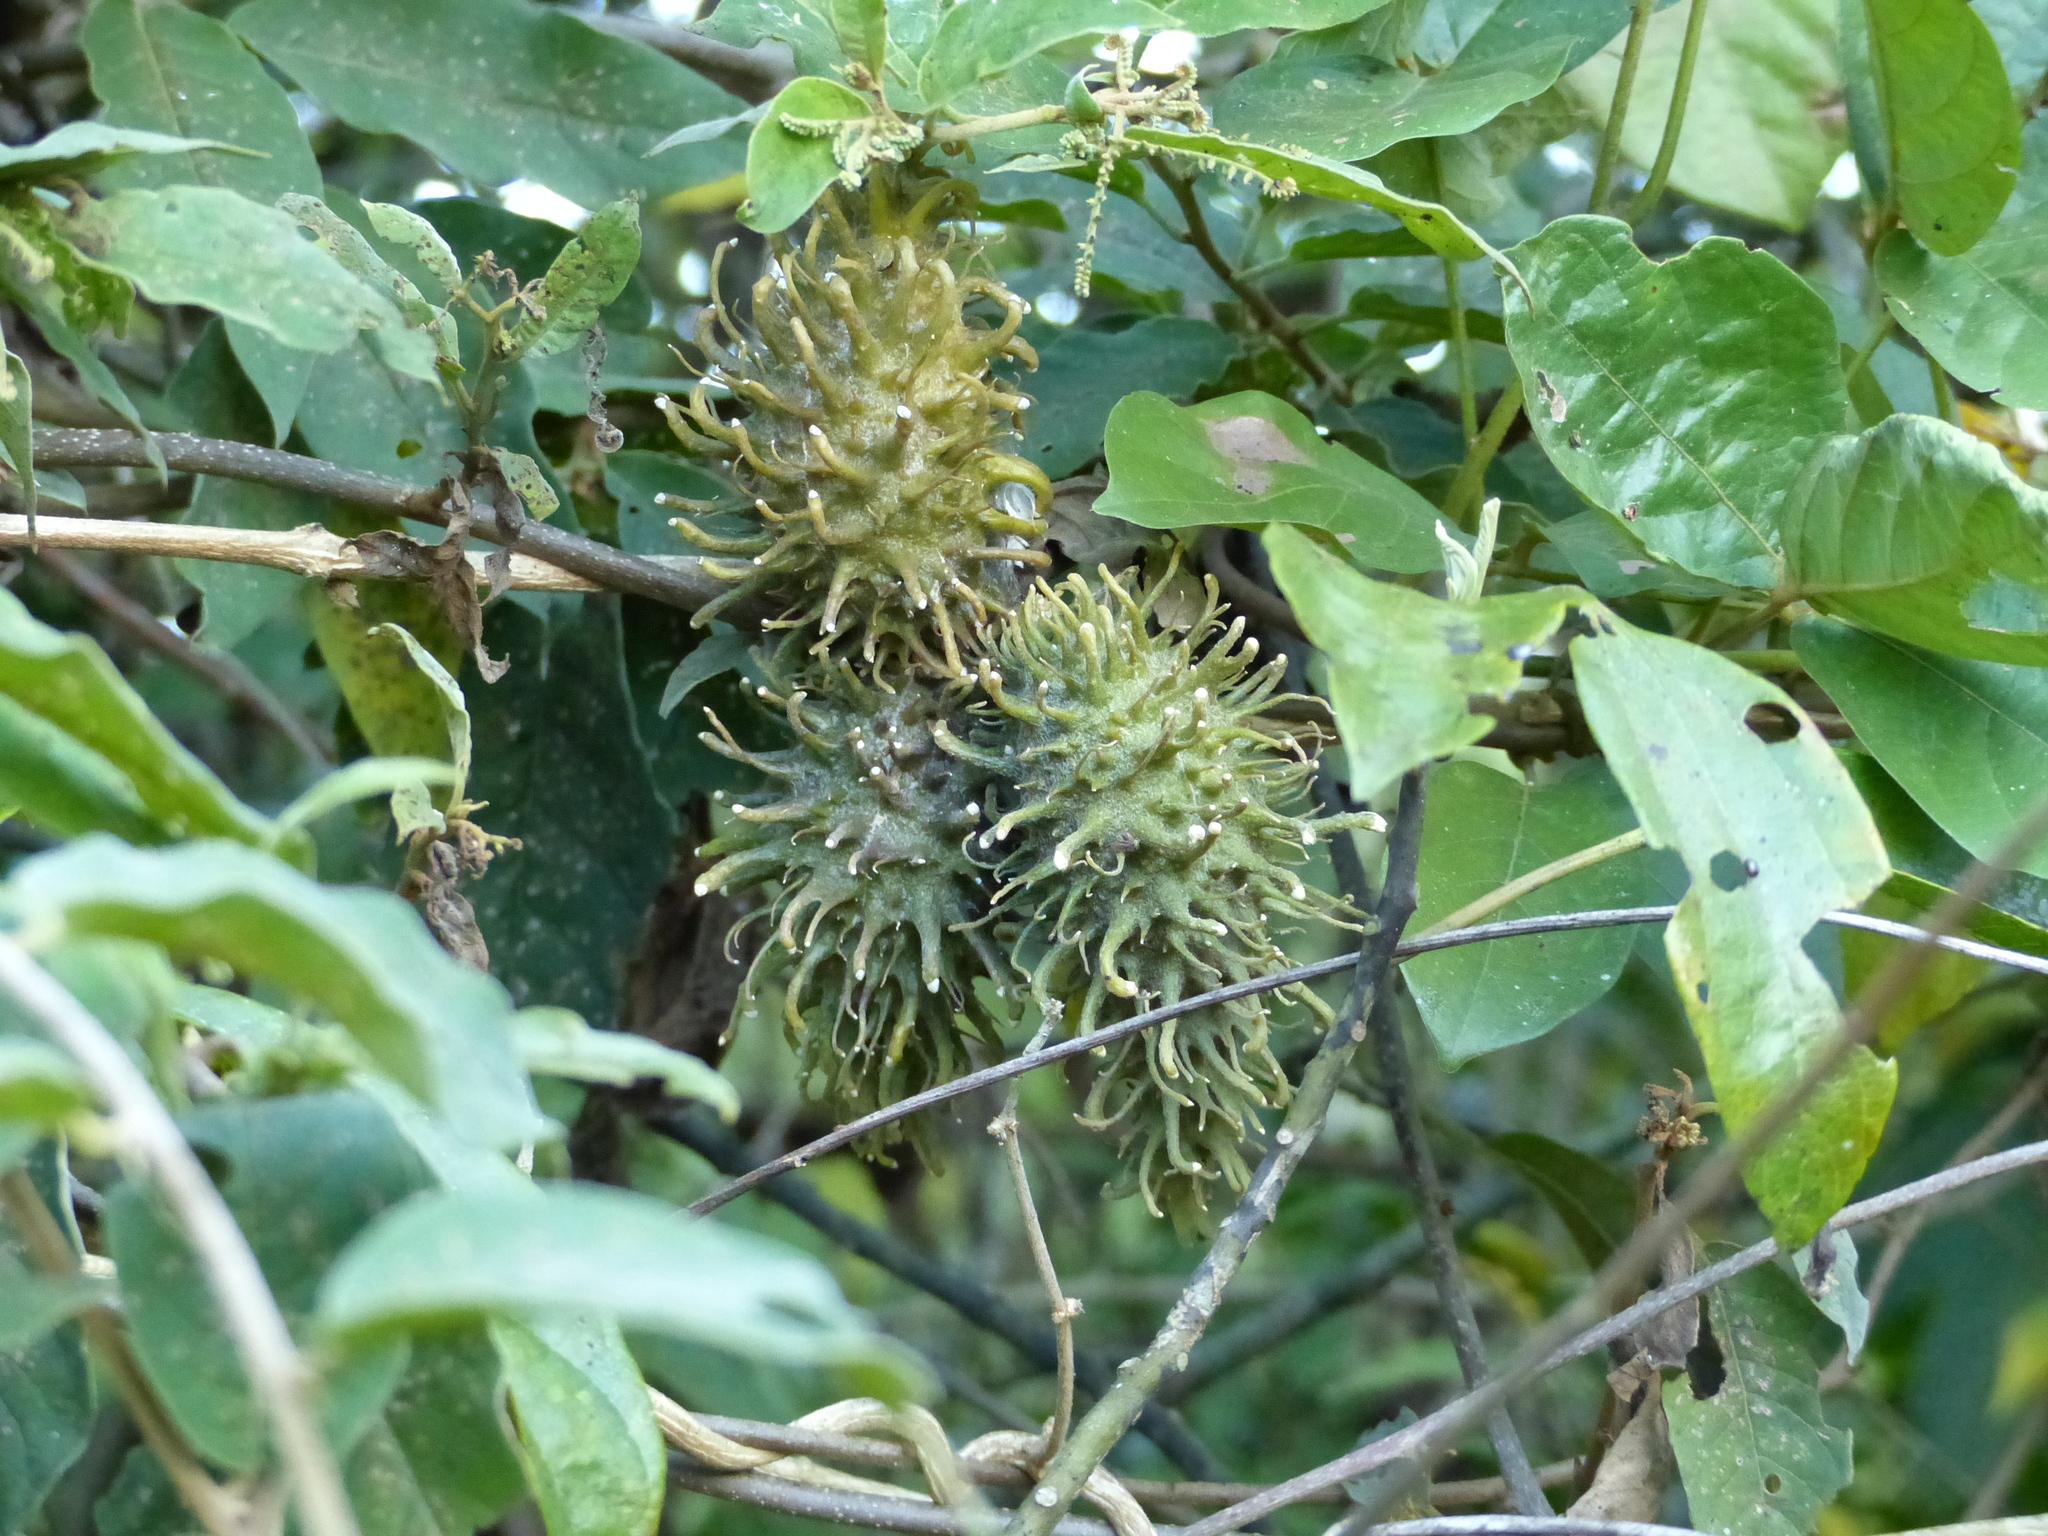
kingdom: Plantae
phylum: Tracheophyta
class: Magnoliopsida
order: Gentianales
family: Apocynaceae
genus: Ibatia
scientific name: Ibatia ganglinosa
